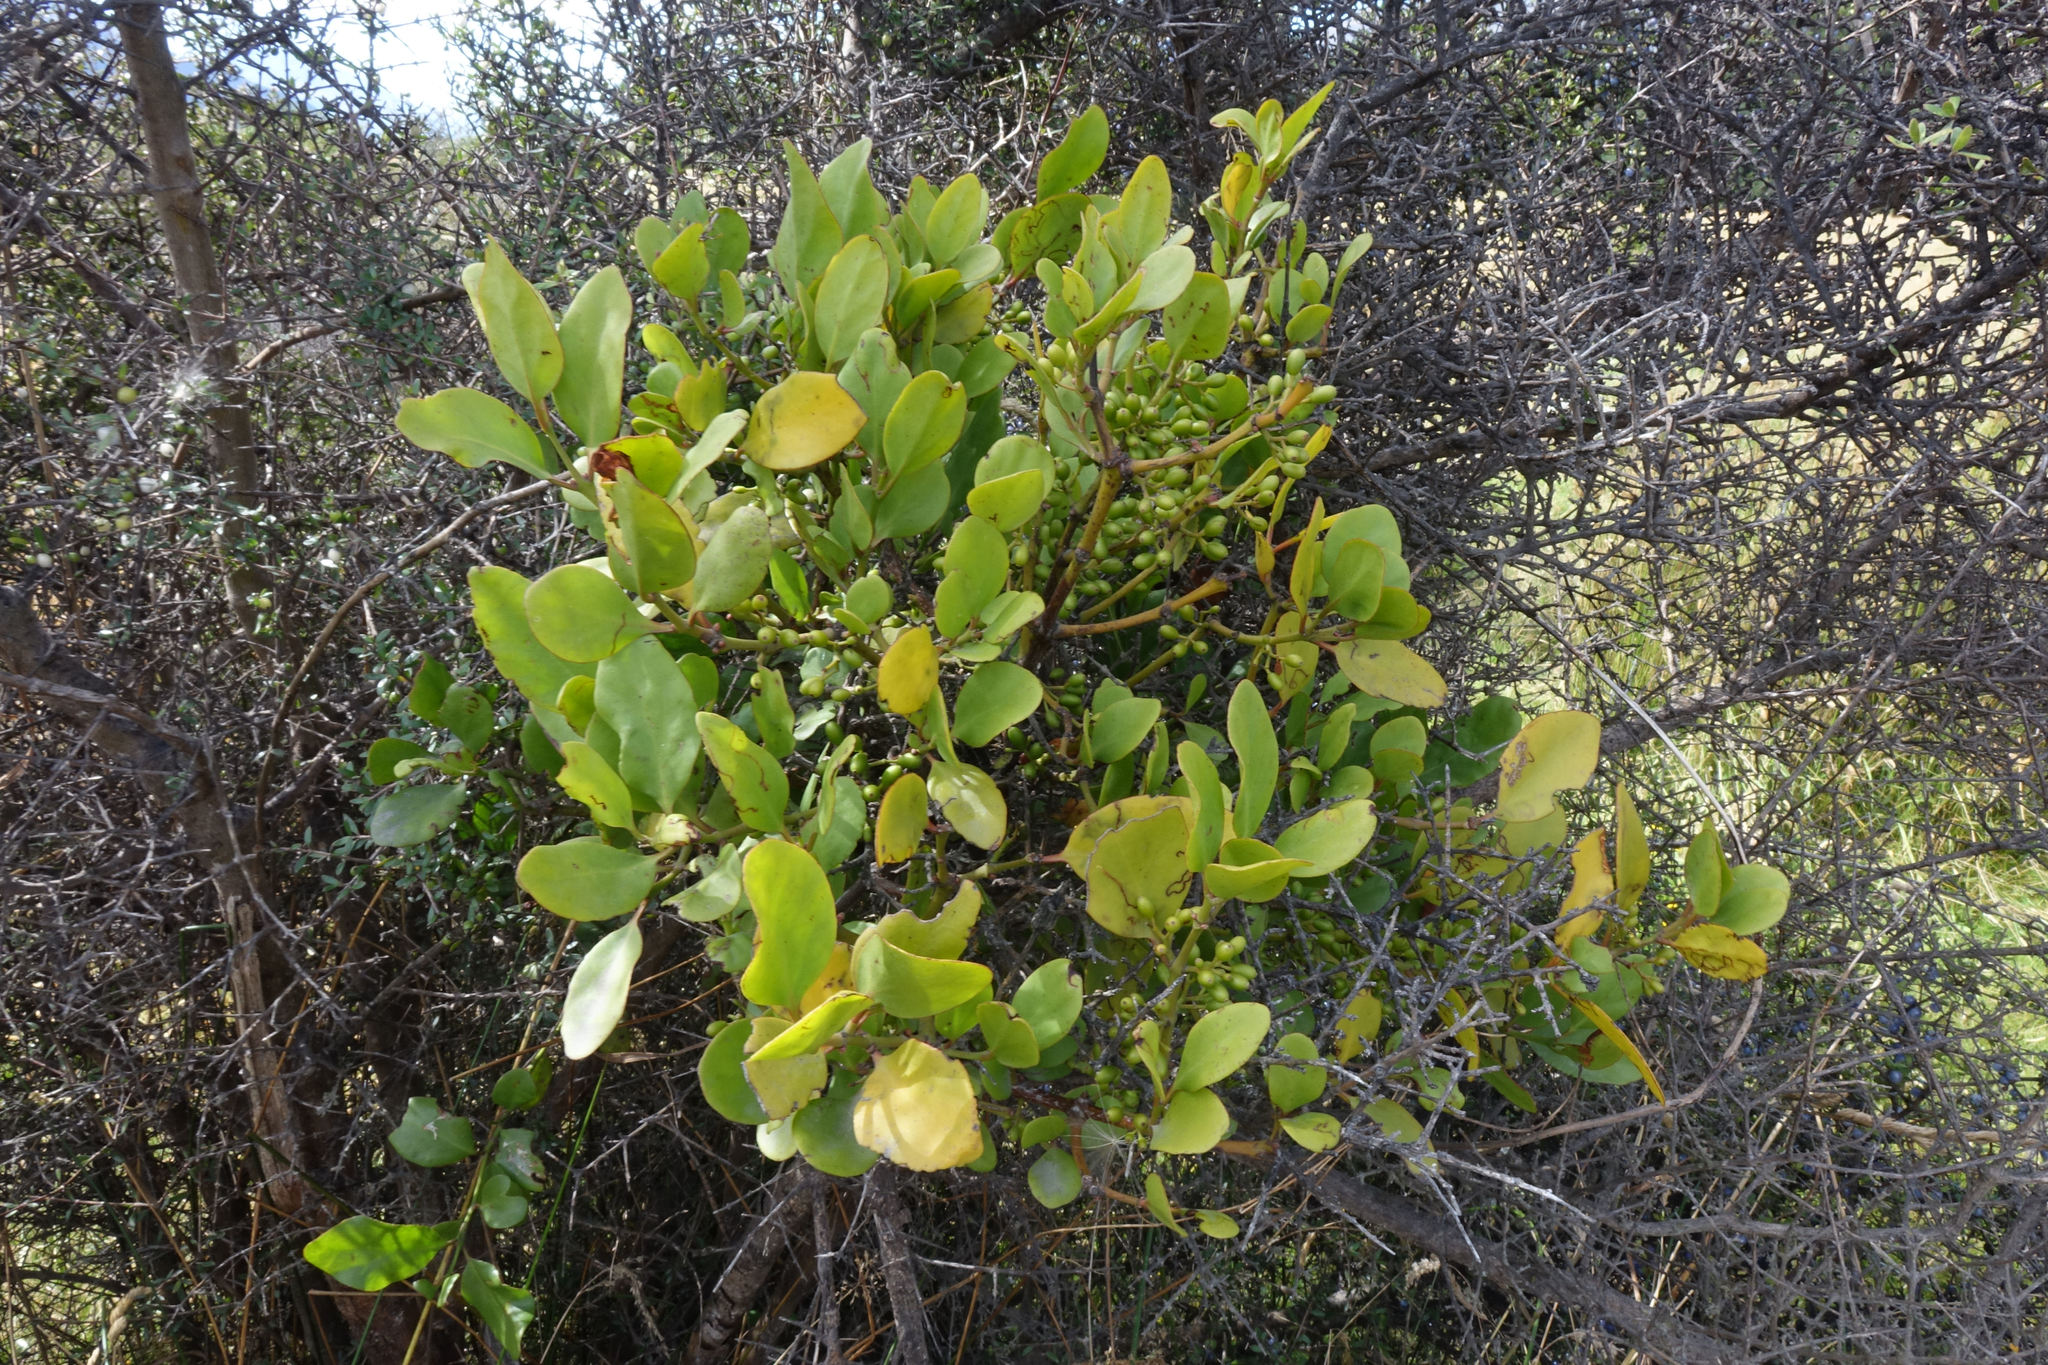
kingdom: Plantae
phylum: Tracheophyta
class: Magnoliopsida
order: Santalales
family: Loranthaceae
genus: Ileostylus
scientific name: Ileostylus micranthus
